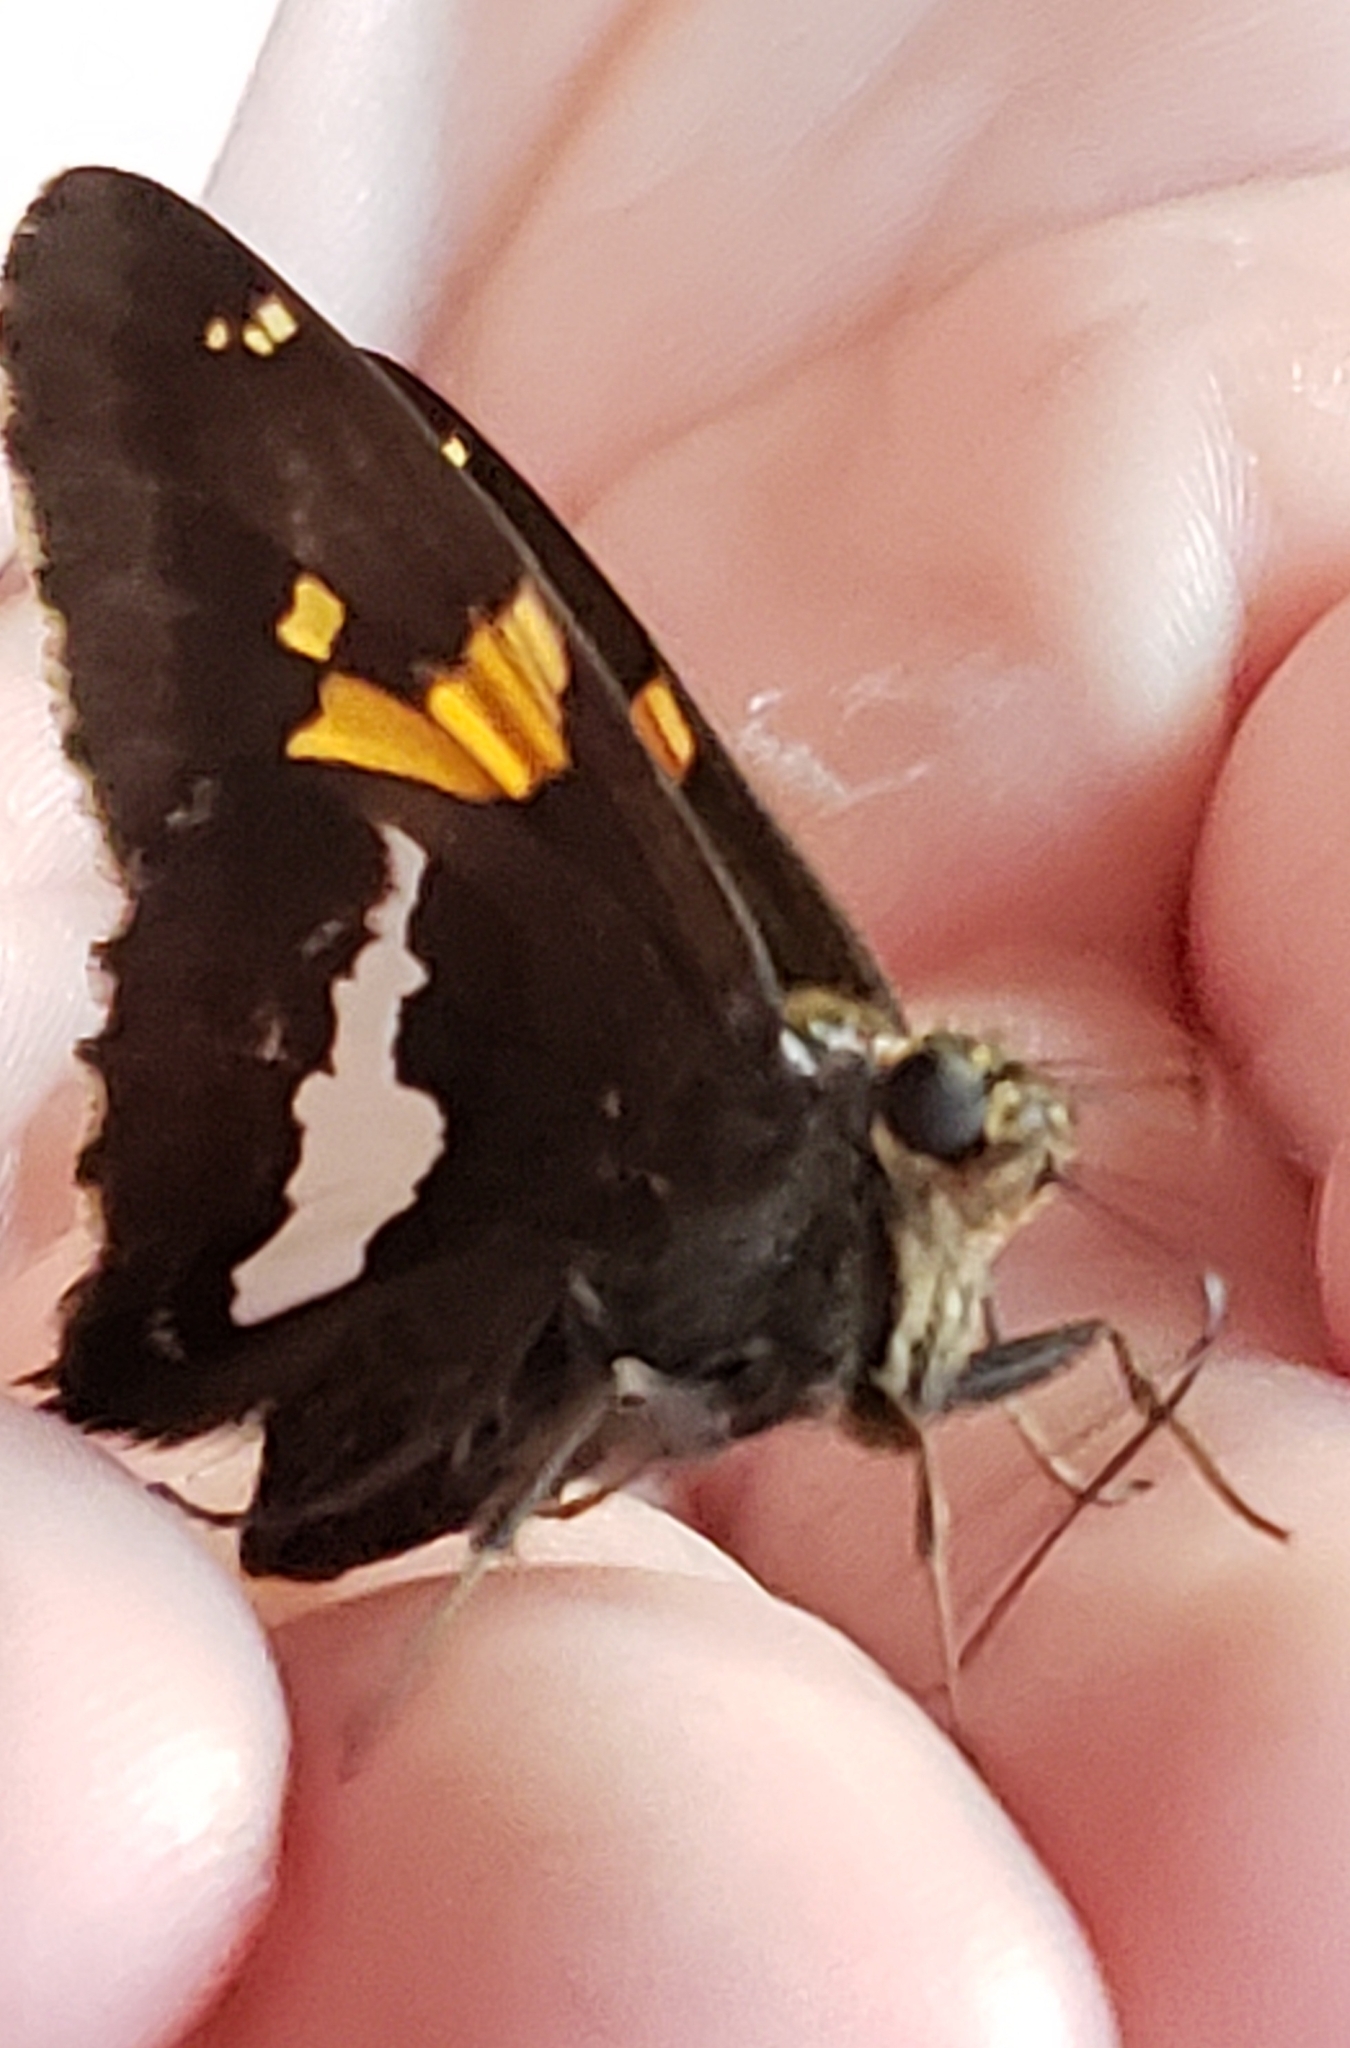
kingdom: Animalia
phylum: Arthropoda
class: Insecta
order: Lepidoptera
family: Hesperiidae
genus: Epargyreus
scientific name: Epargyreus clarus
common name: Silver-spotted skipper
